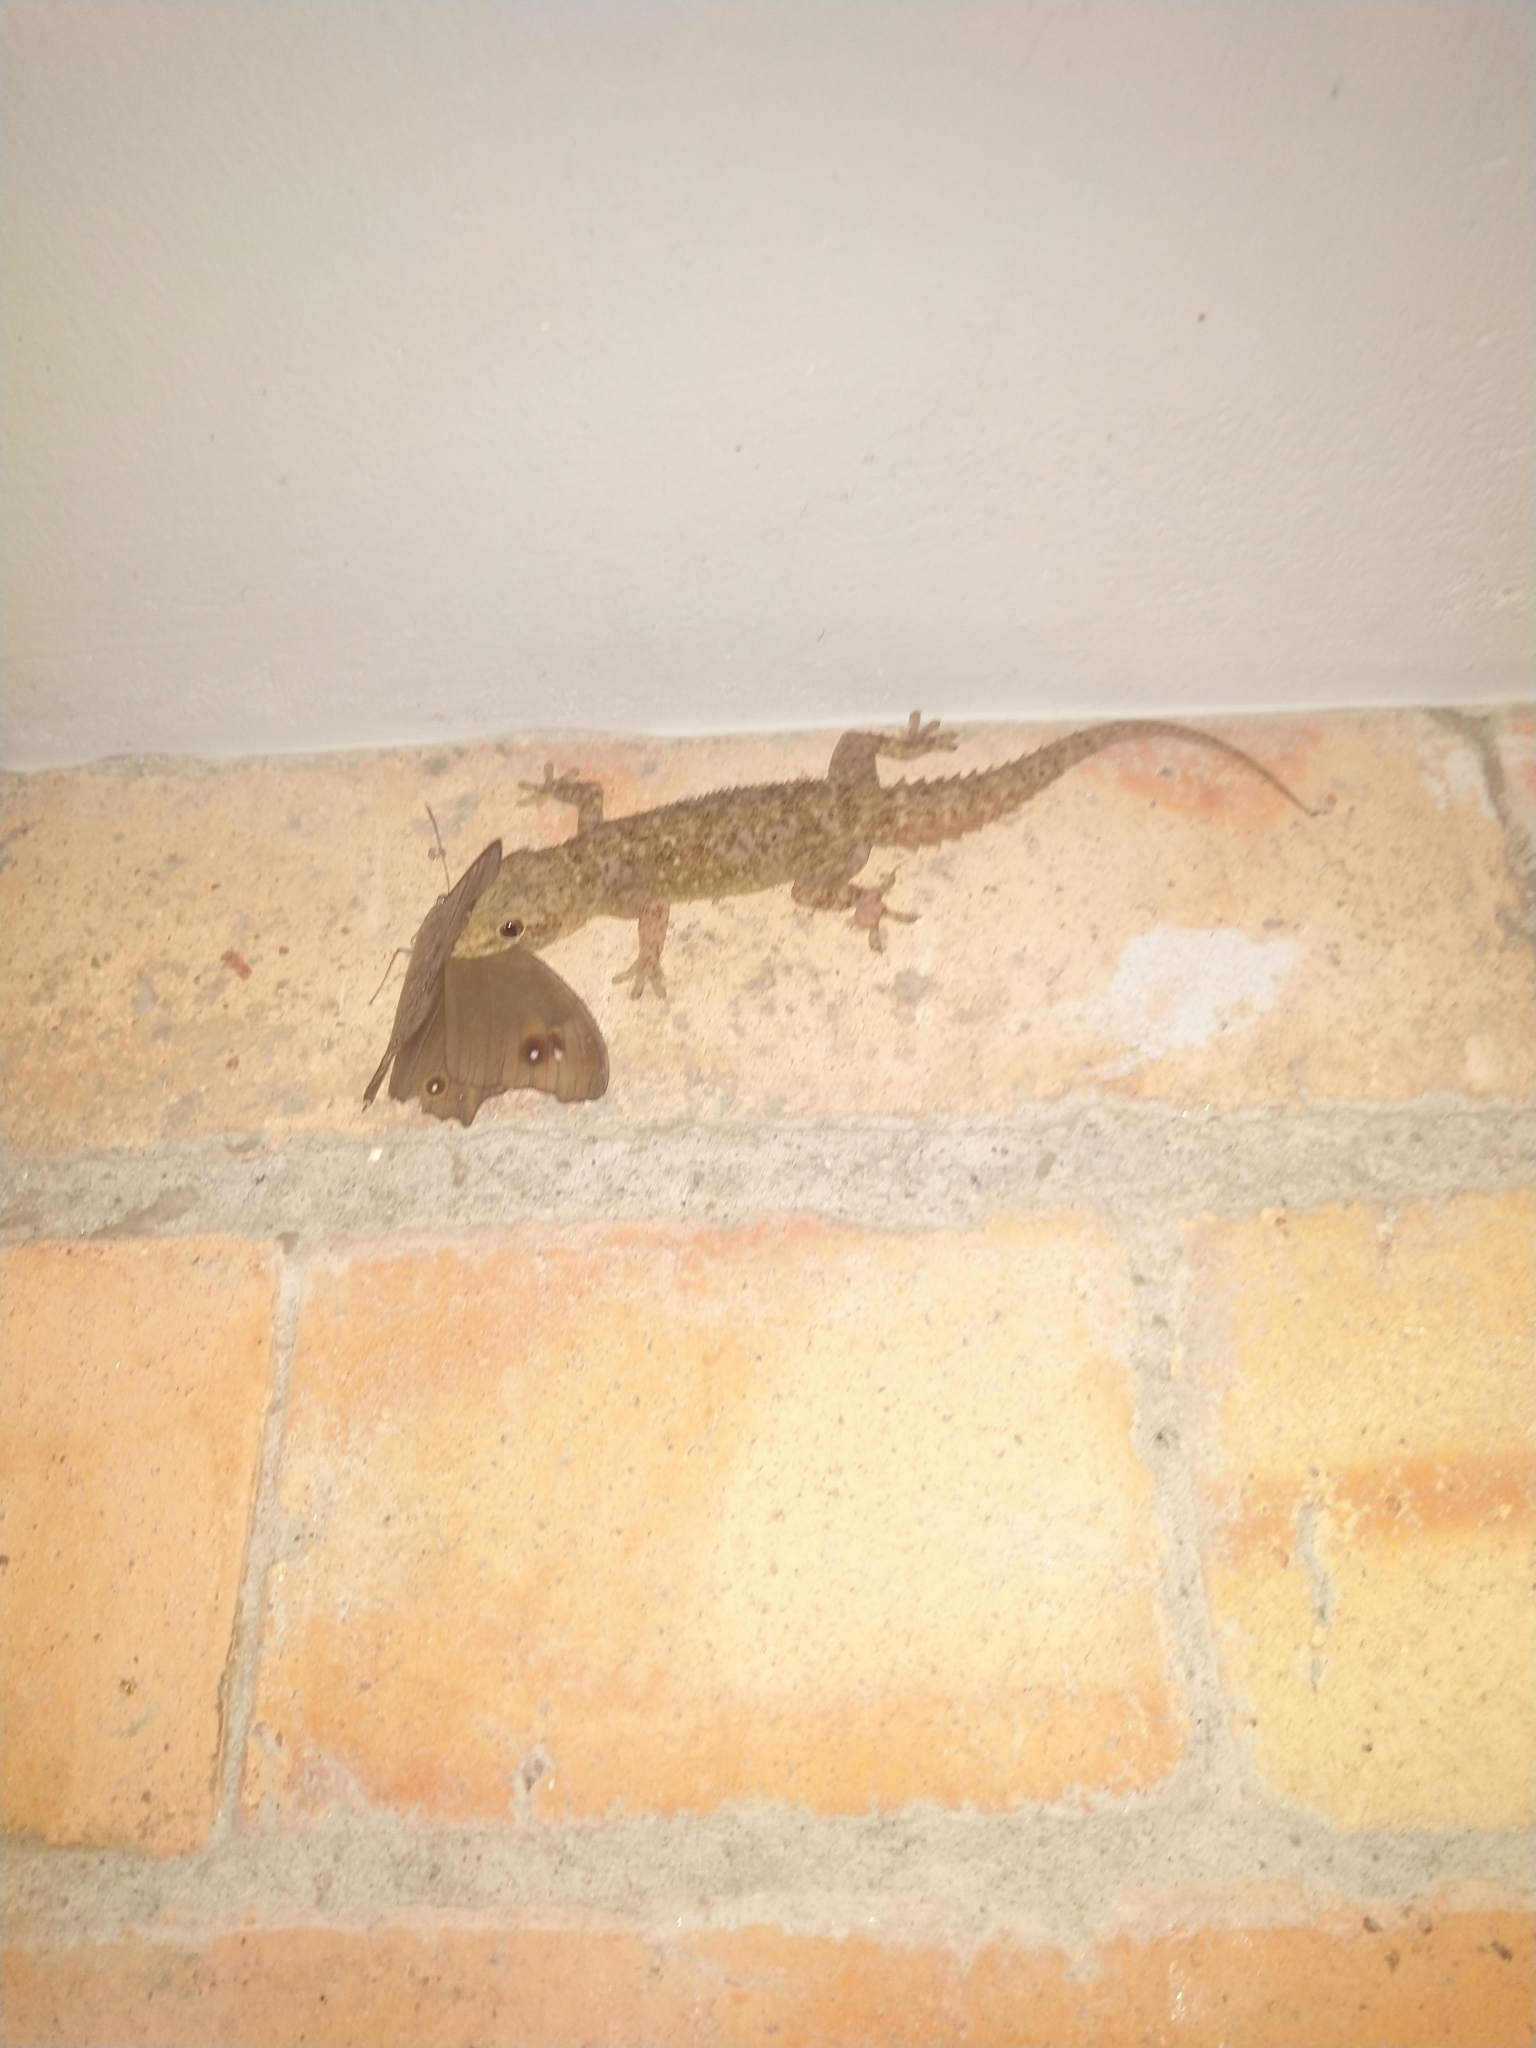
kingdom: Animalia
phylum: Arthropoda
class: Insecta
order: Lepidoptera
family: Nymphalidae
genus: Melanitis
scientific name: Melanitis leda
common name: Twilight brown
